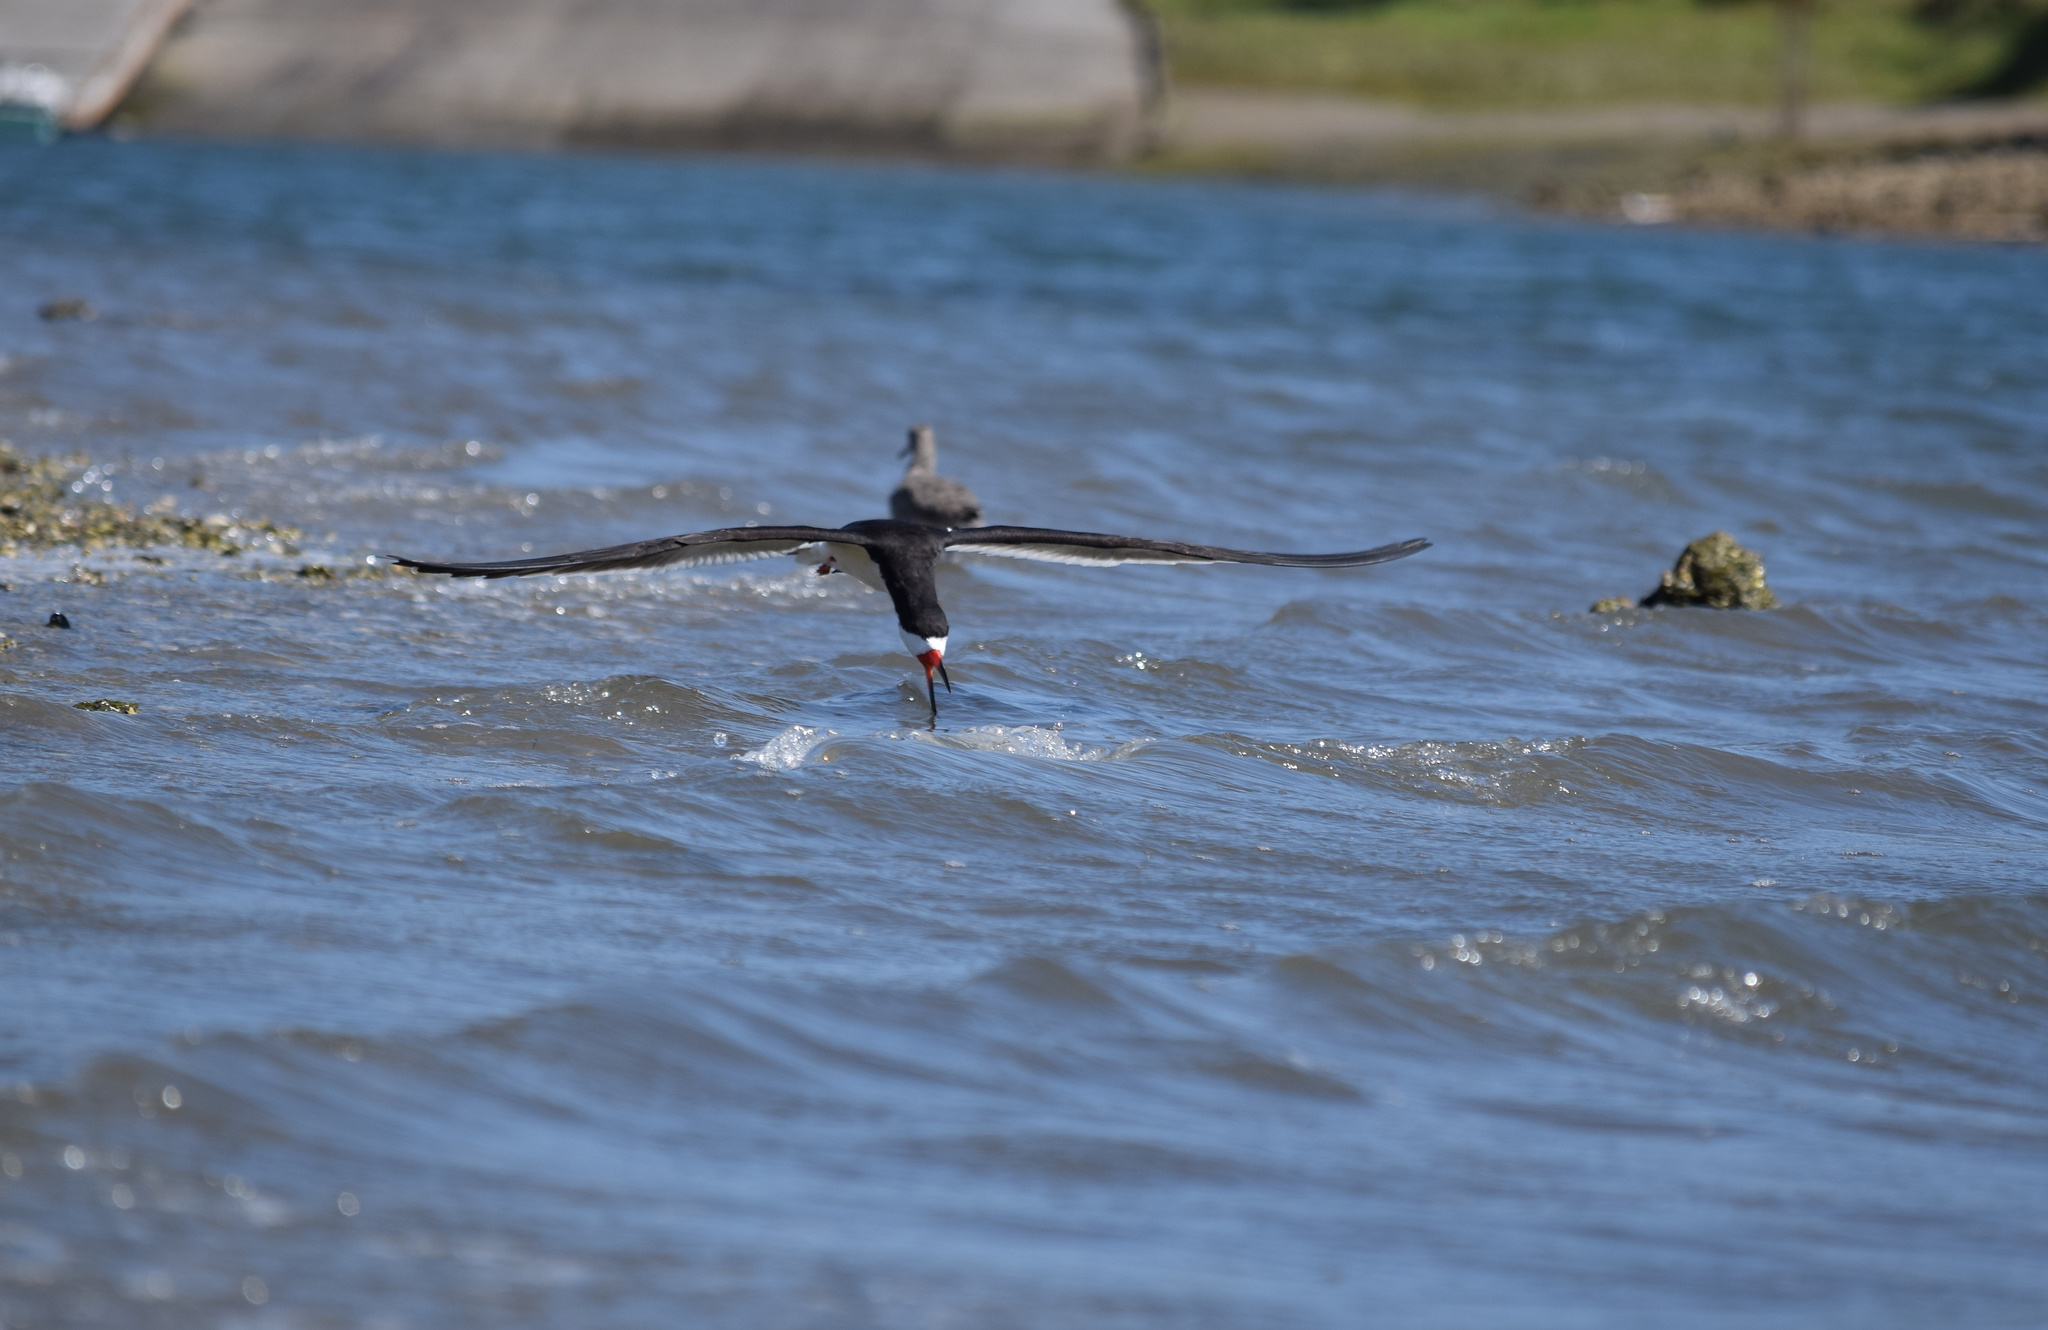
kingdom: Animalia
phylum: Chordata
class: Aves
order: Charadriiformes
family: Laridae
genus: Rynchops
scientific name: Rynchops niger
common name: Black skimmer
